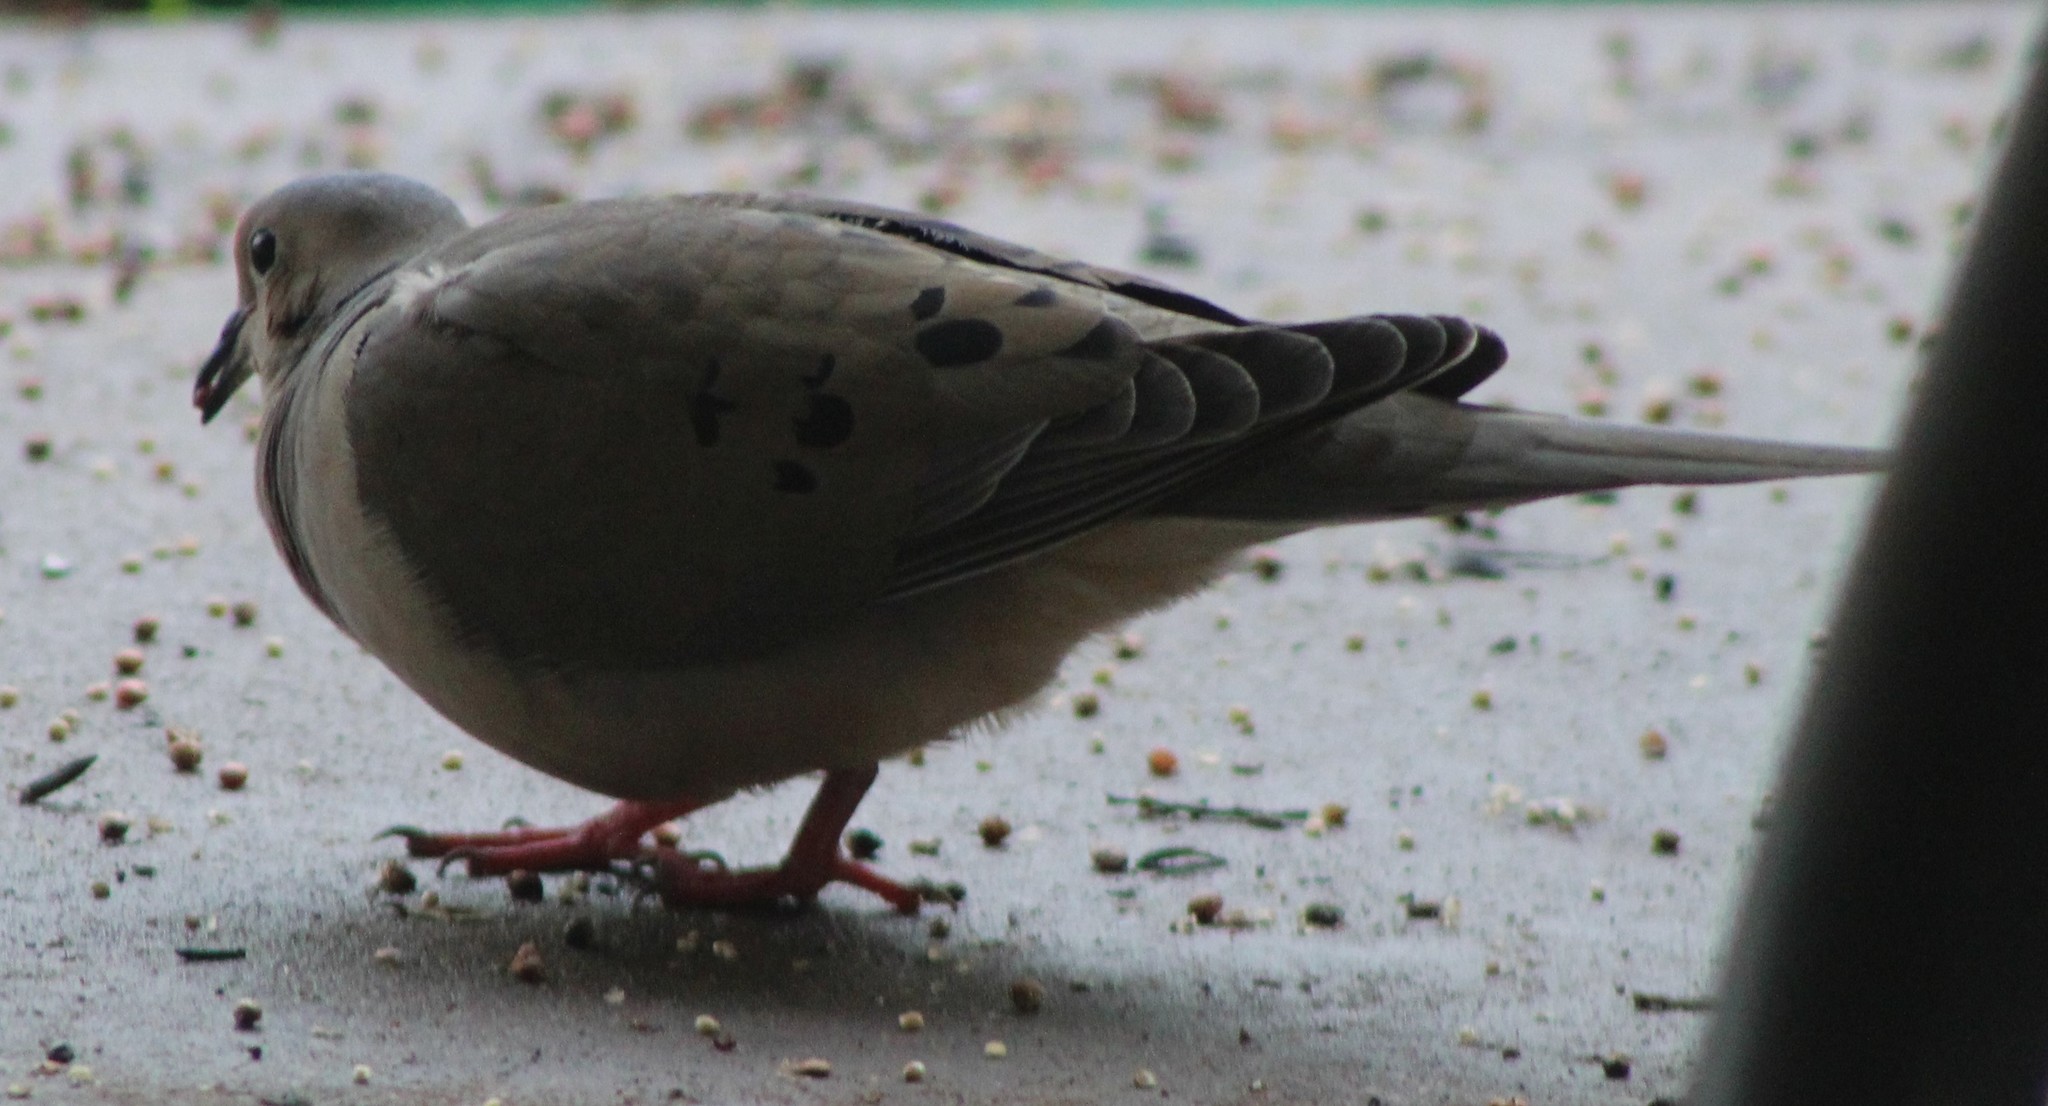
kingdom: Animalia
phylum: Chordata
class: Aves
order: Columbiformes
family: Columbidae
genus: Zenaida
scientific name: Zenaida macroura
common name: Mourning dove
